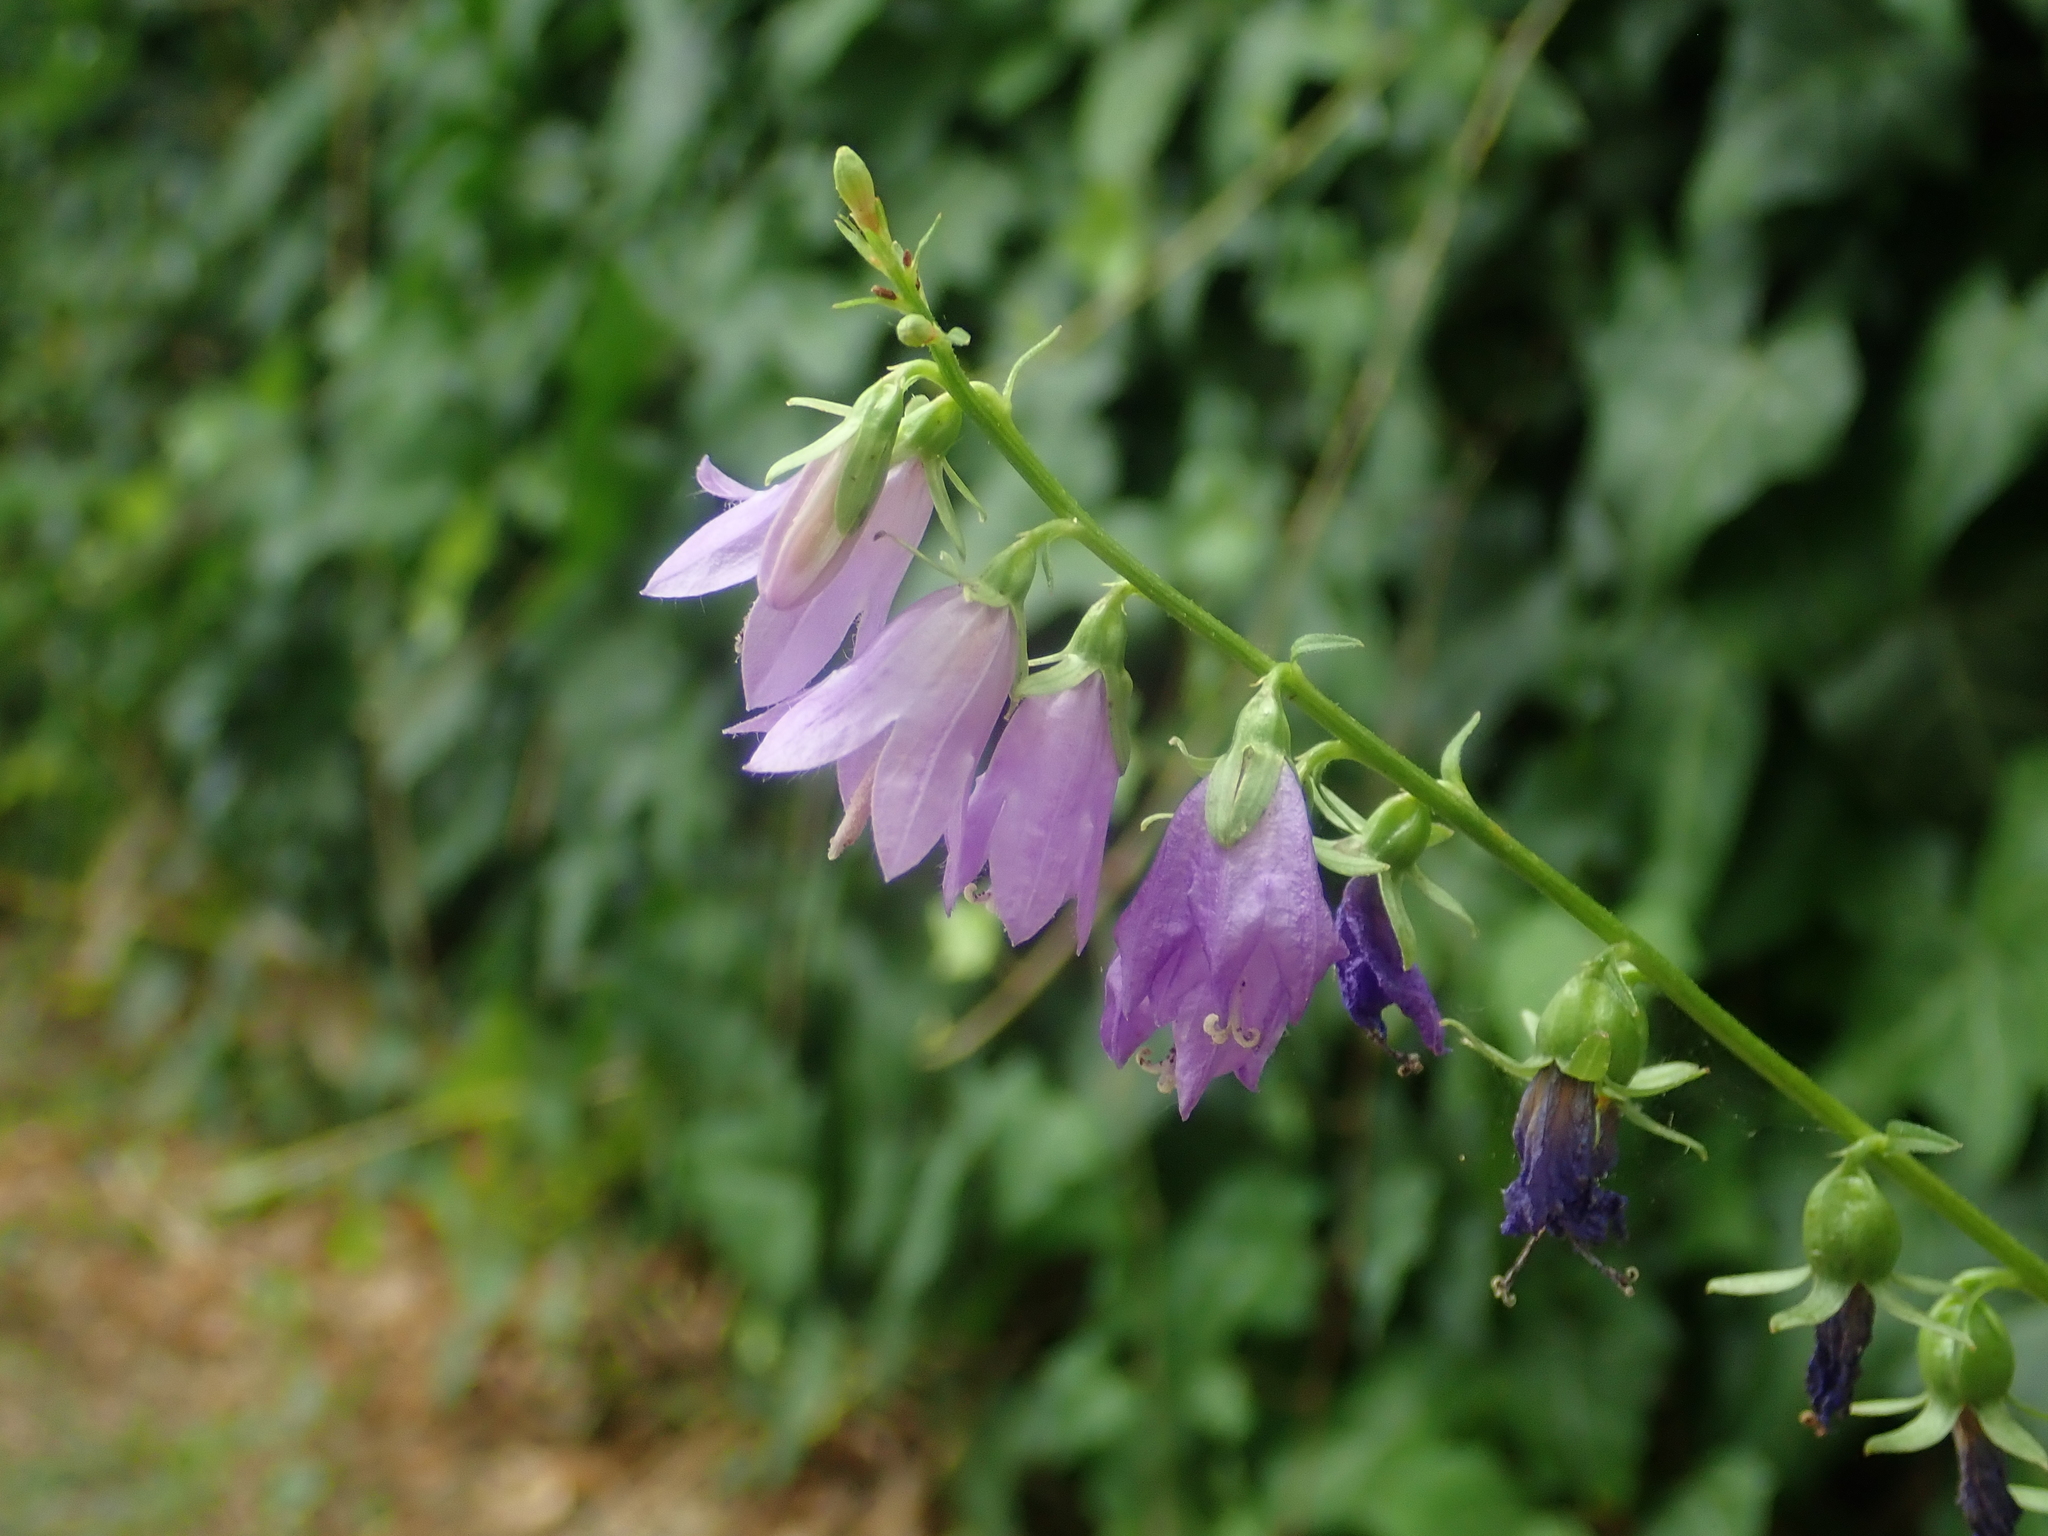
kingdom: Plantae
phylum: Tracheophyta
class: Magnoliopsida
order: Asterales
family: Campanulaceae
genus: Campanula
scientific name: Campanula rapunculoides
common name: Creeping bellflower
